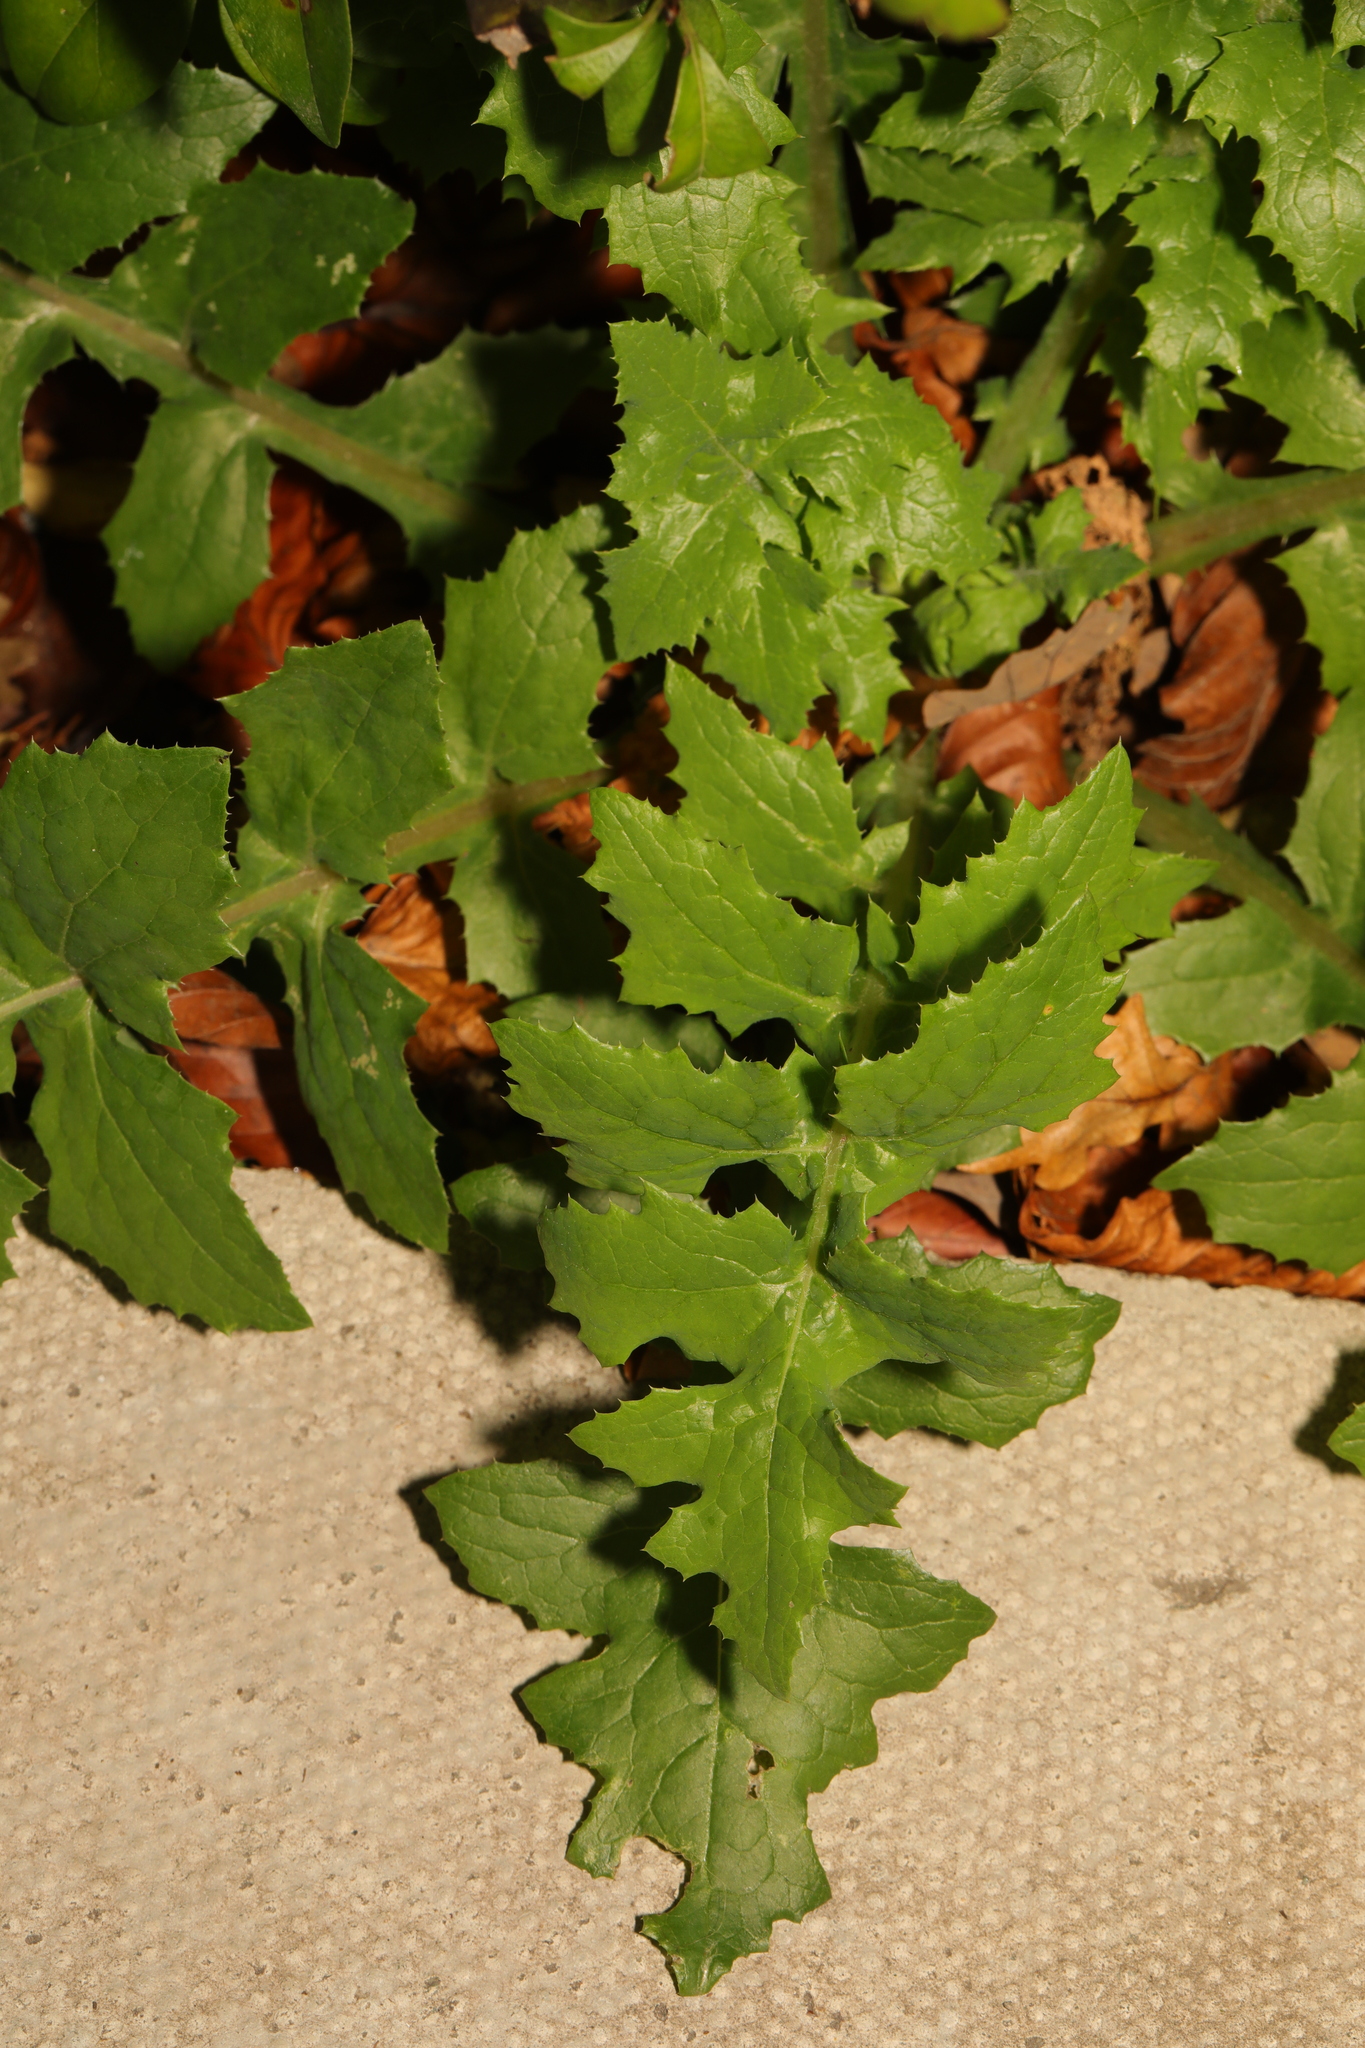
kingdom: Plantae
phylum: Tracheophyta
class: Magnoliopsida
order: Asterales
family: Asteraceae
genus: Sonchus
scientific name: Sonchus oleraceus
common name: Common sowthistle
